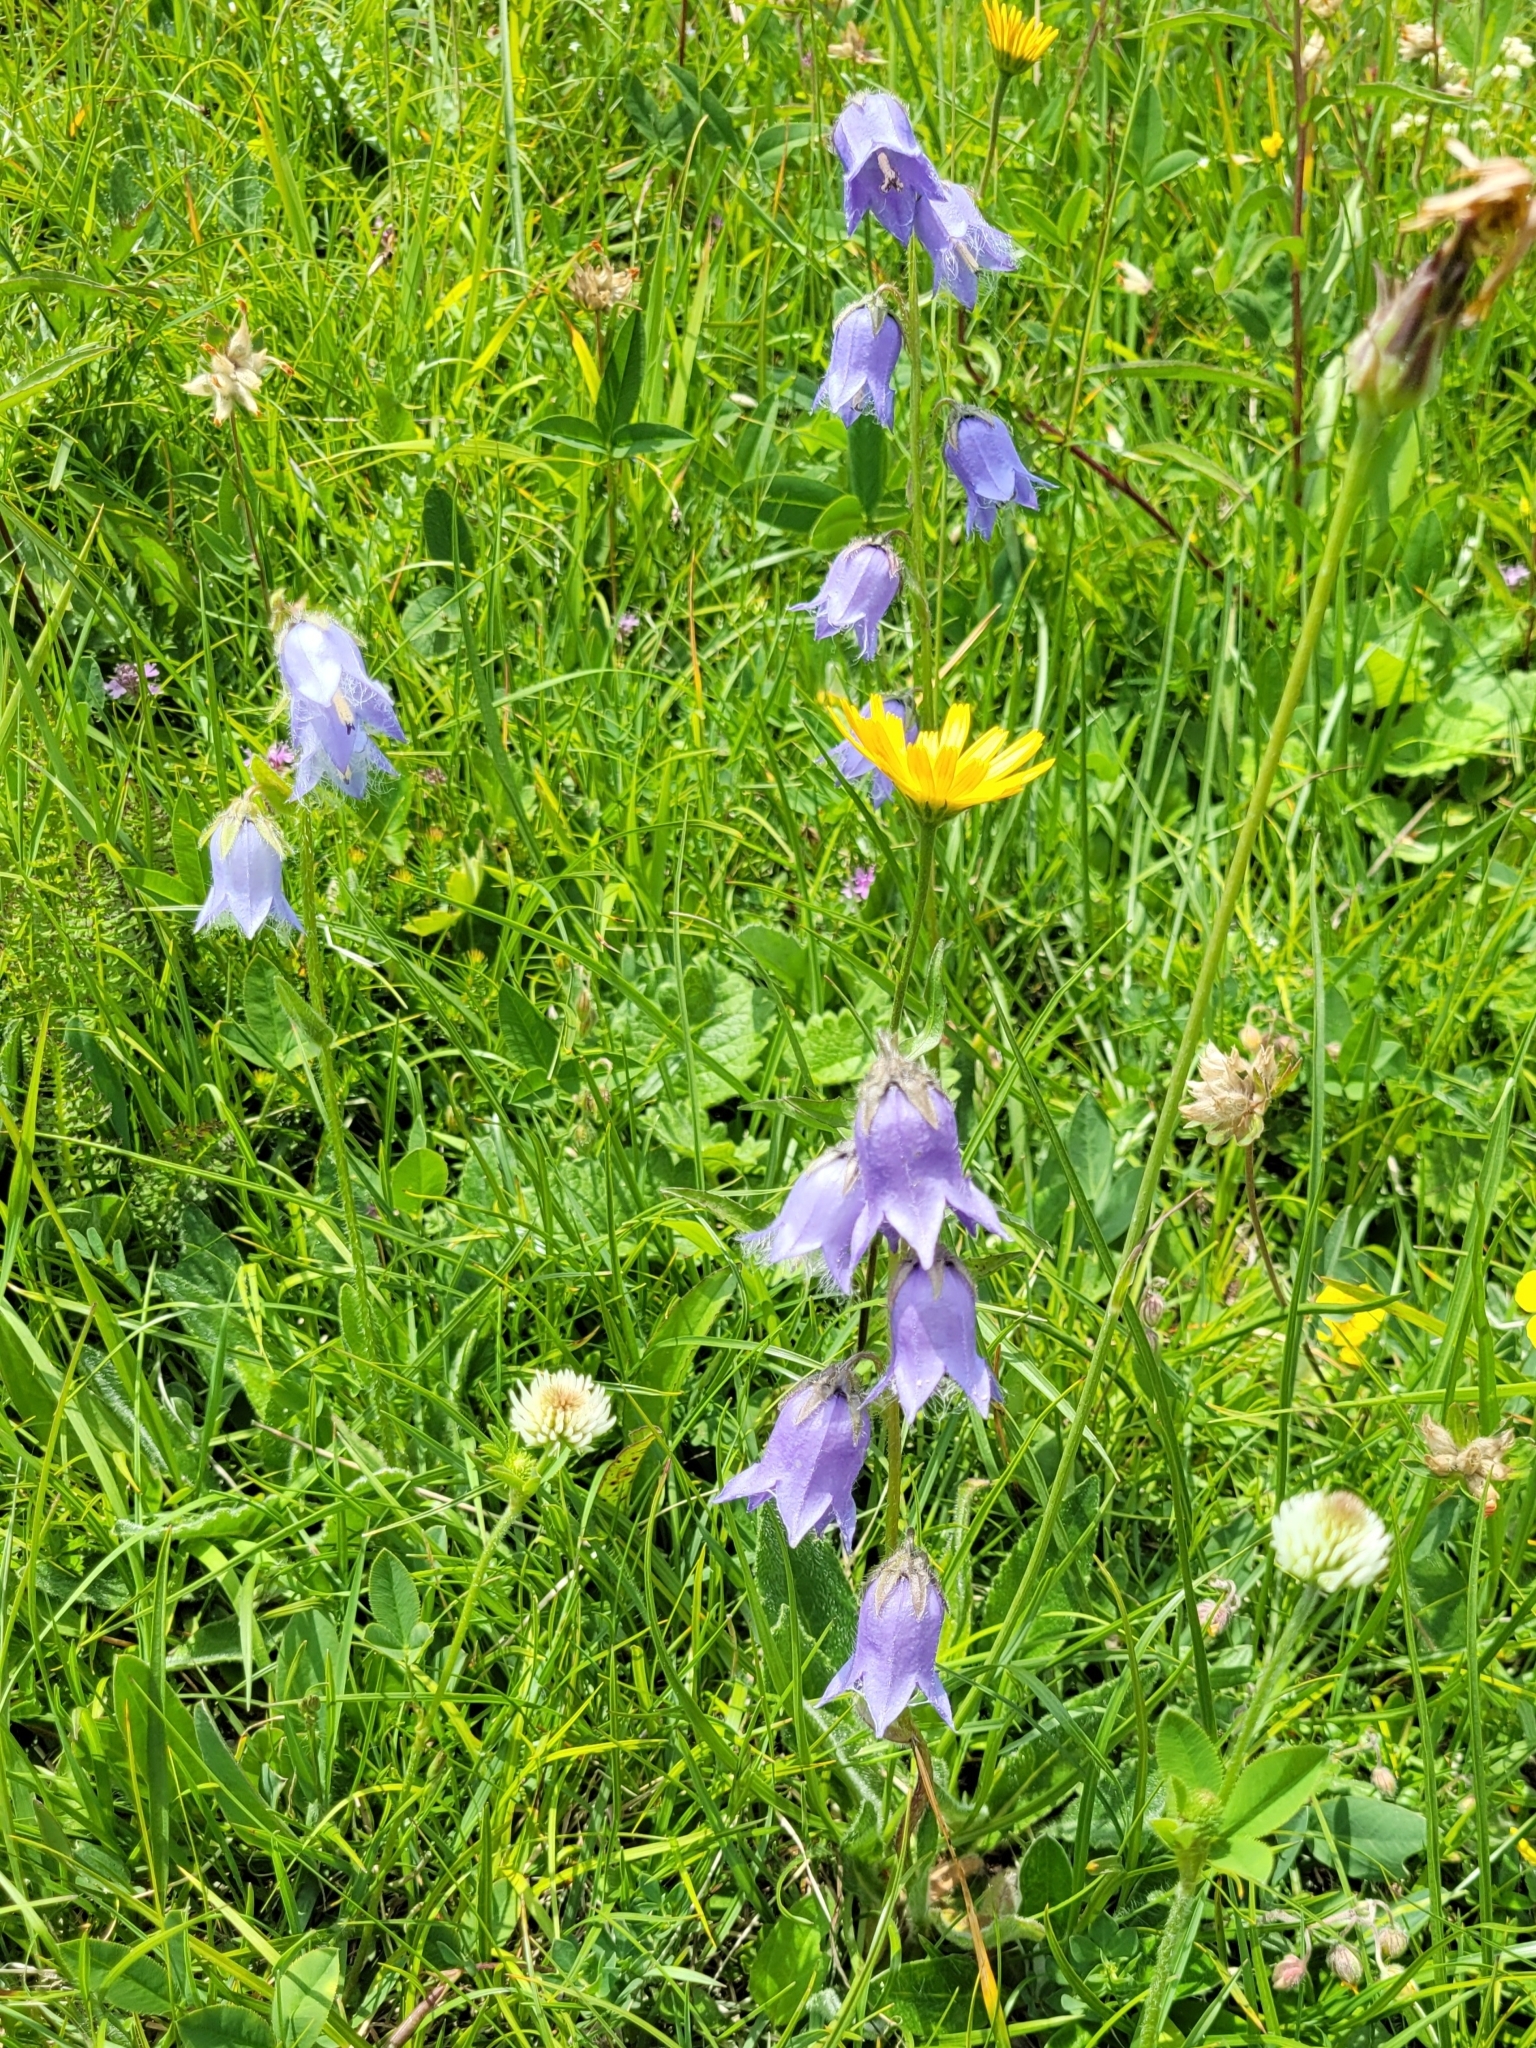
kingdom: Plantae
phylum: Tracheophyta
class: Magnoliopsida
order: Asterales
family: Campanulaceae
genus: Campanula
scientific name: Campanula barbata
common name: Bearded bellflower
